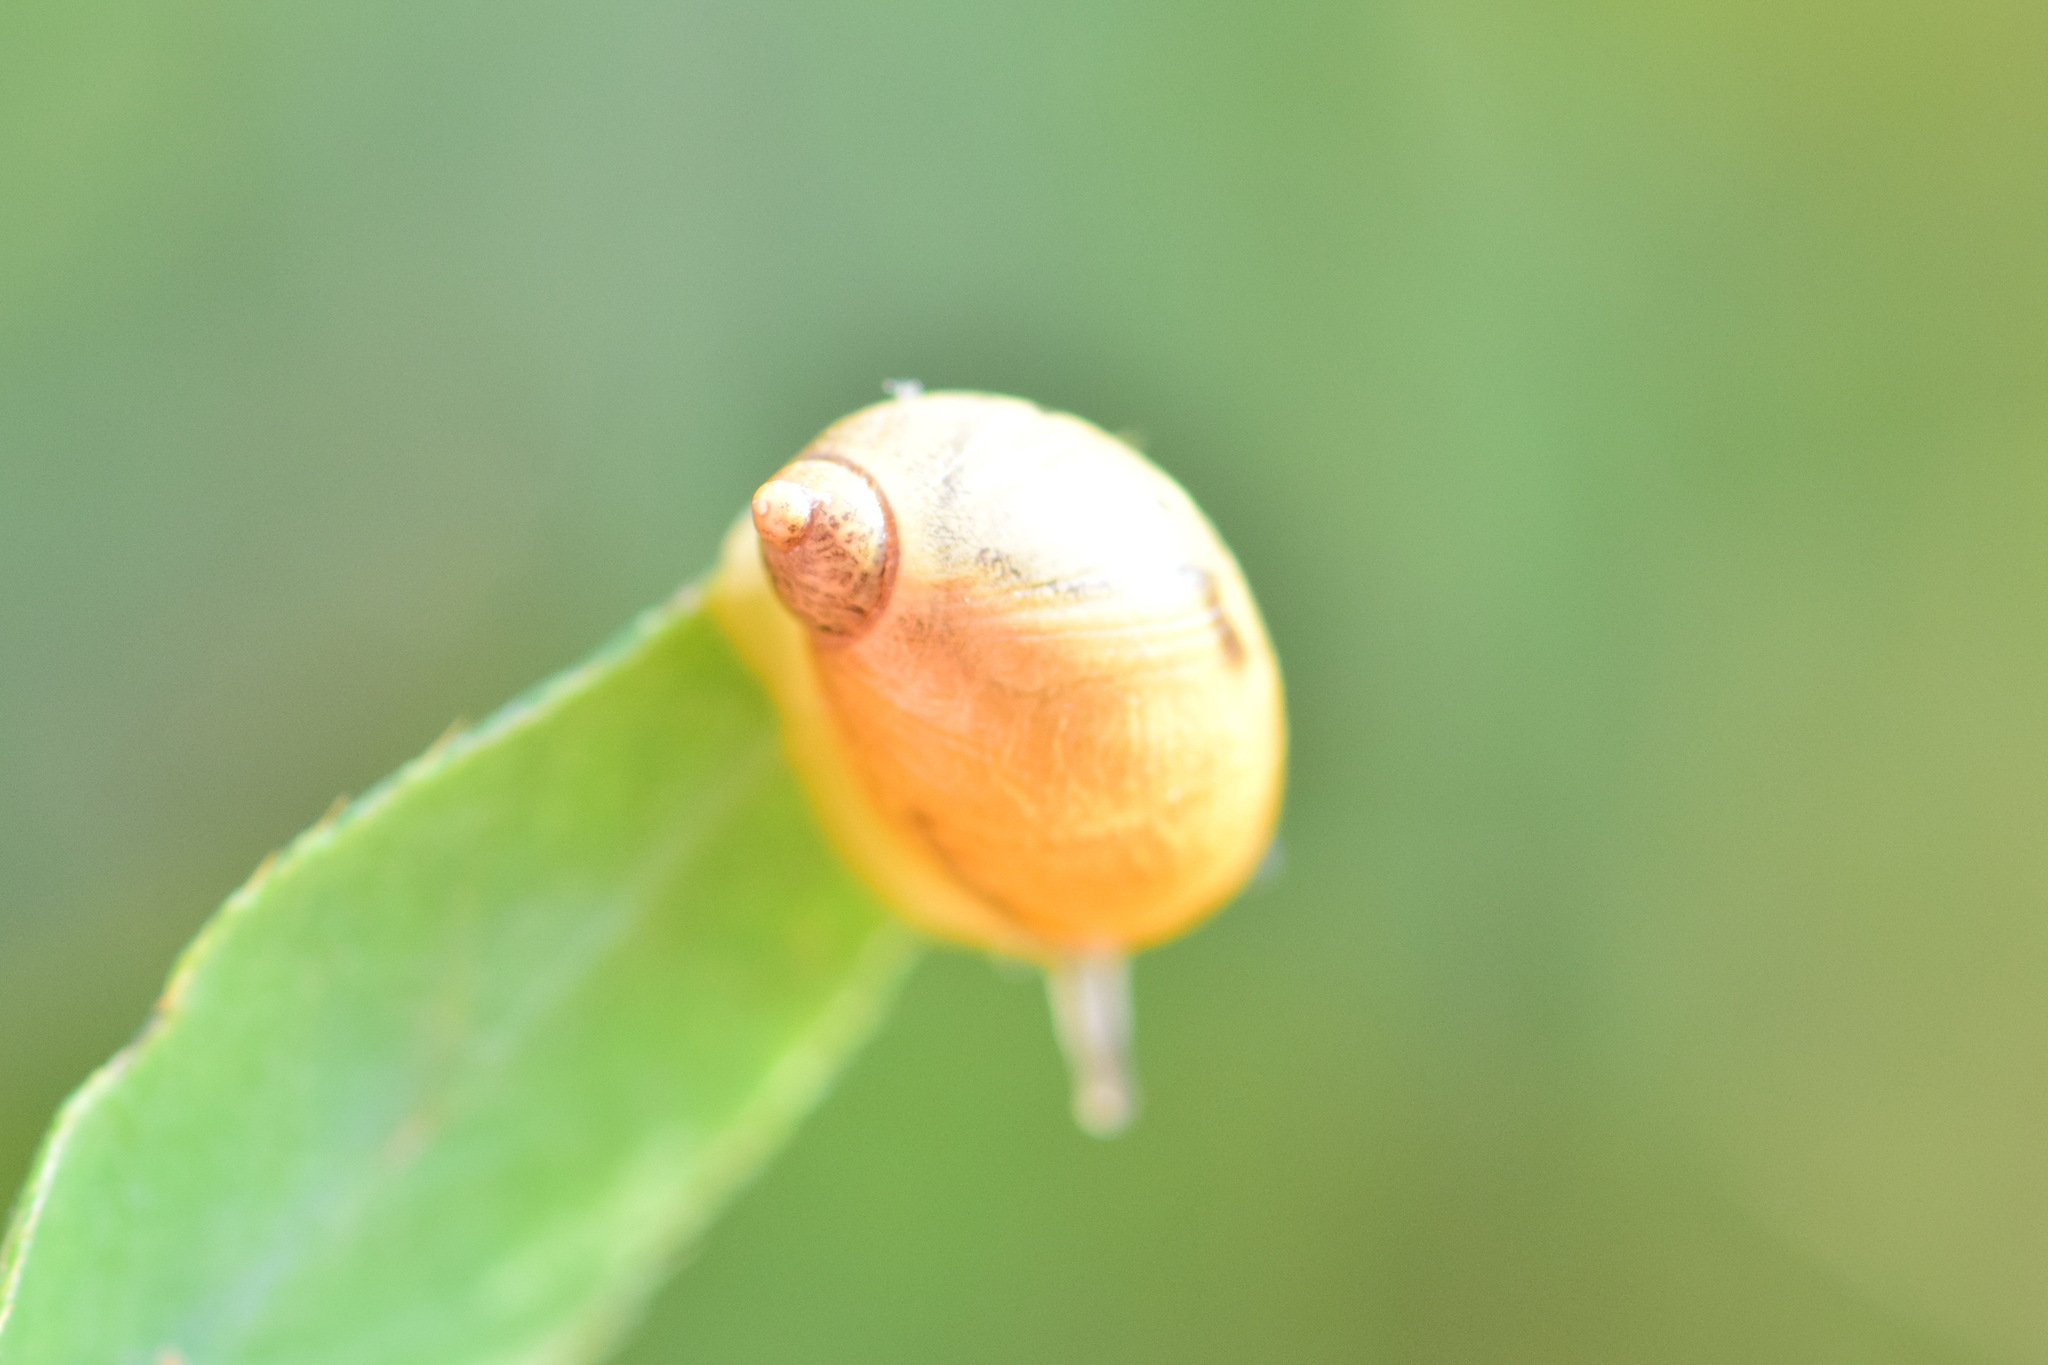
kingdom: Animalia
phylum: Mollusca
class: Gastropoda
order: Stylommatophora
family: Succineidae
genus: Succinea
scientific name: Succinea putris
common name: European ambersnail
